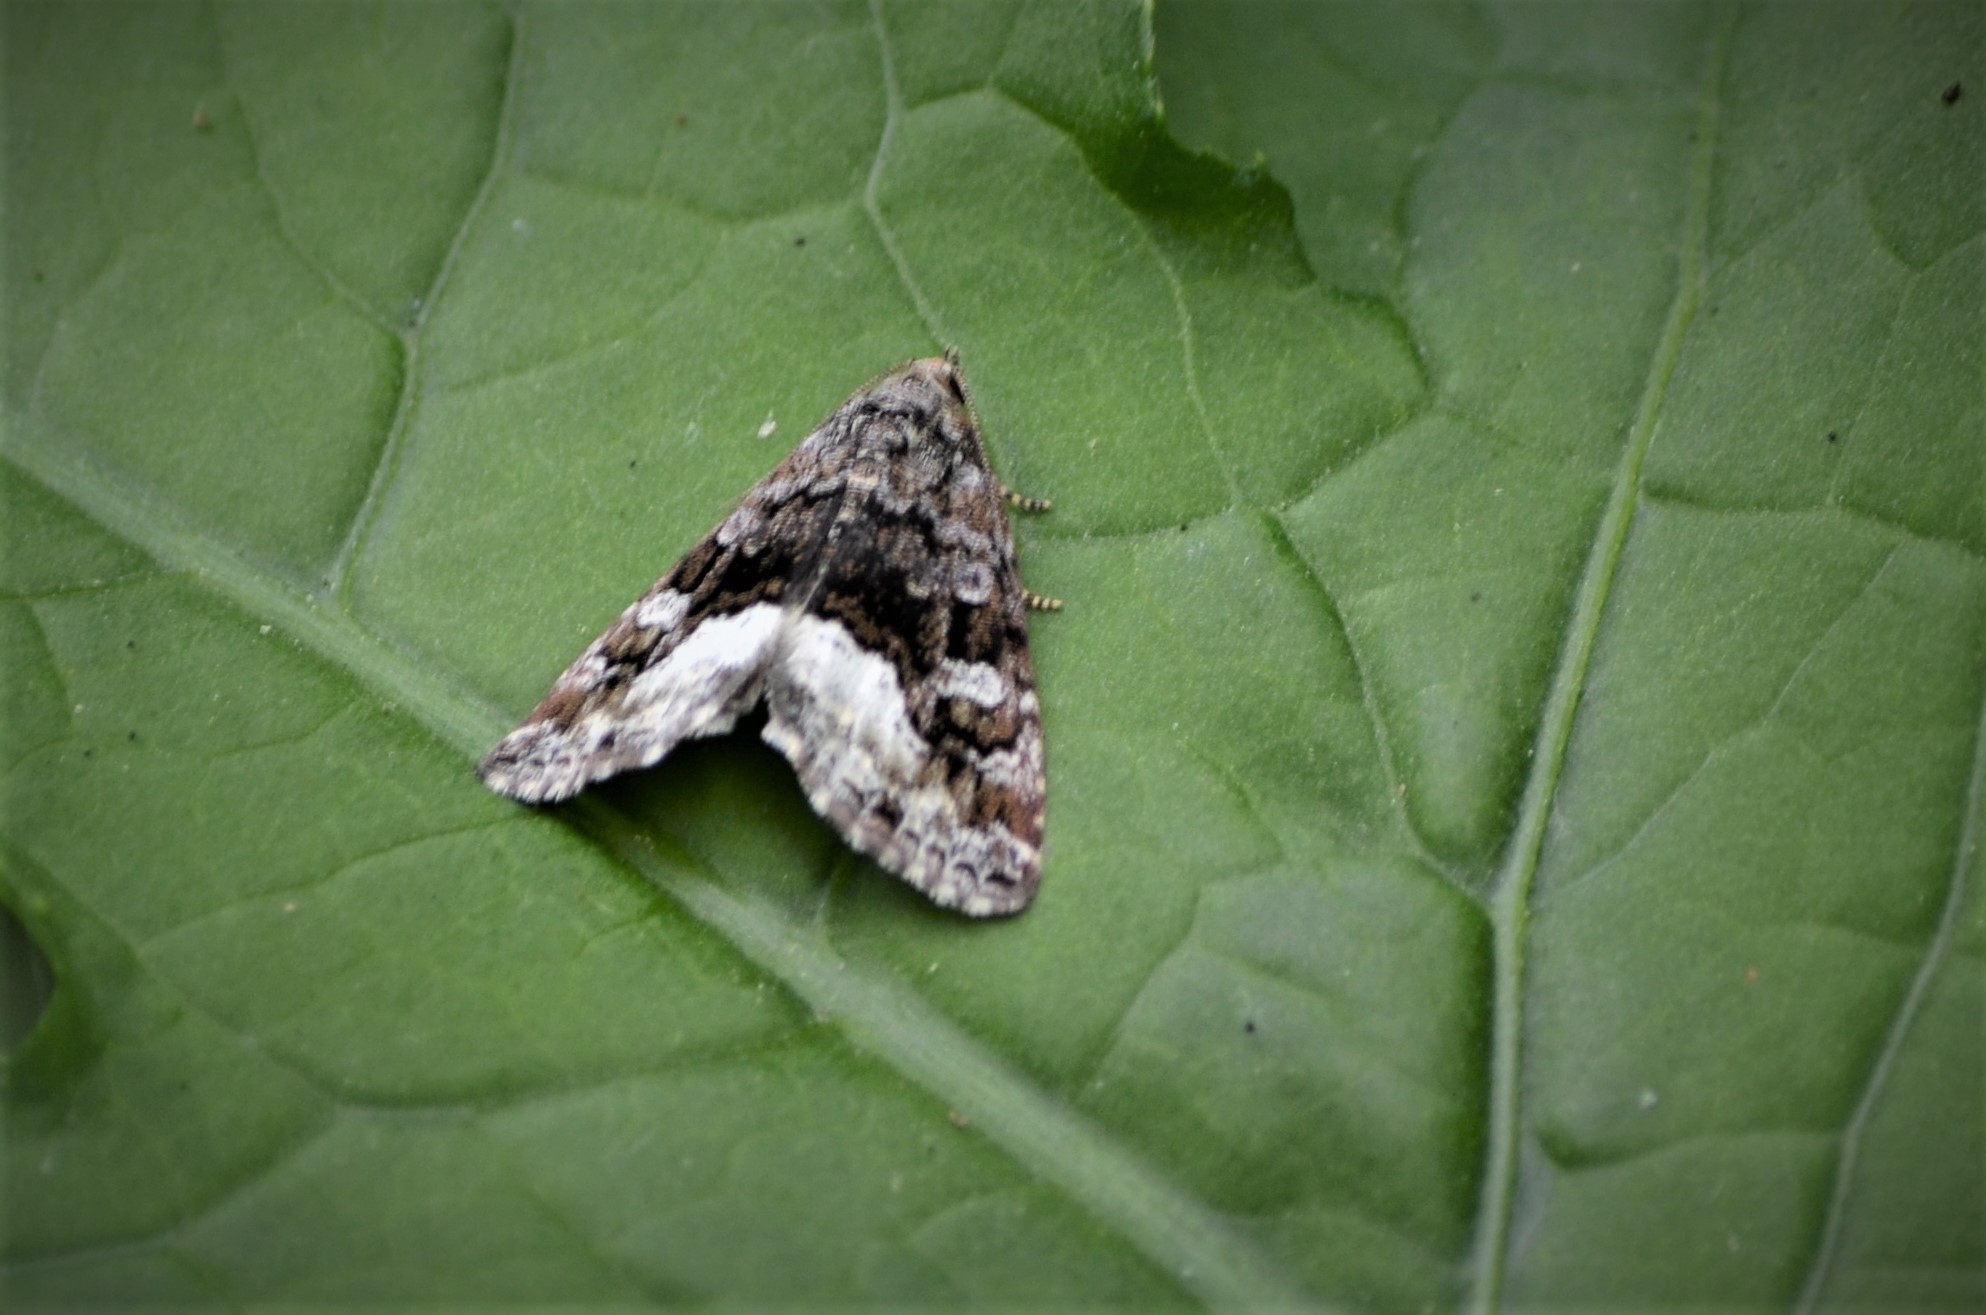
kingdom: Animalia
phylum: Arthropoda
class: Insecta
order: Lepidoptera
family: Noctuidae
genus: Deltote
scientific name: Deltote pygarga
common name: Marbled white spot
